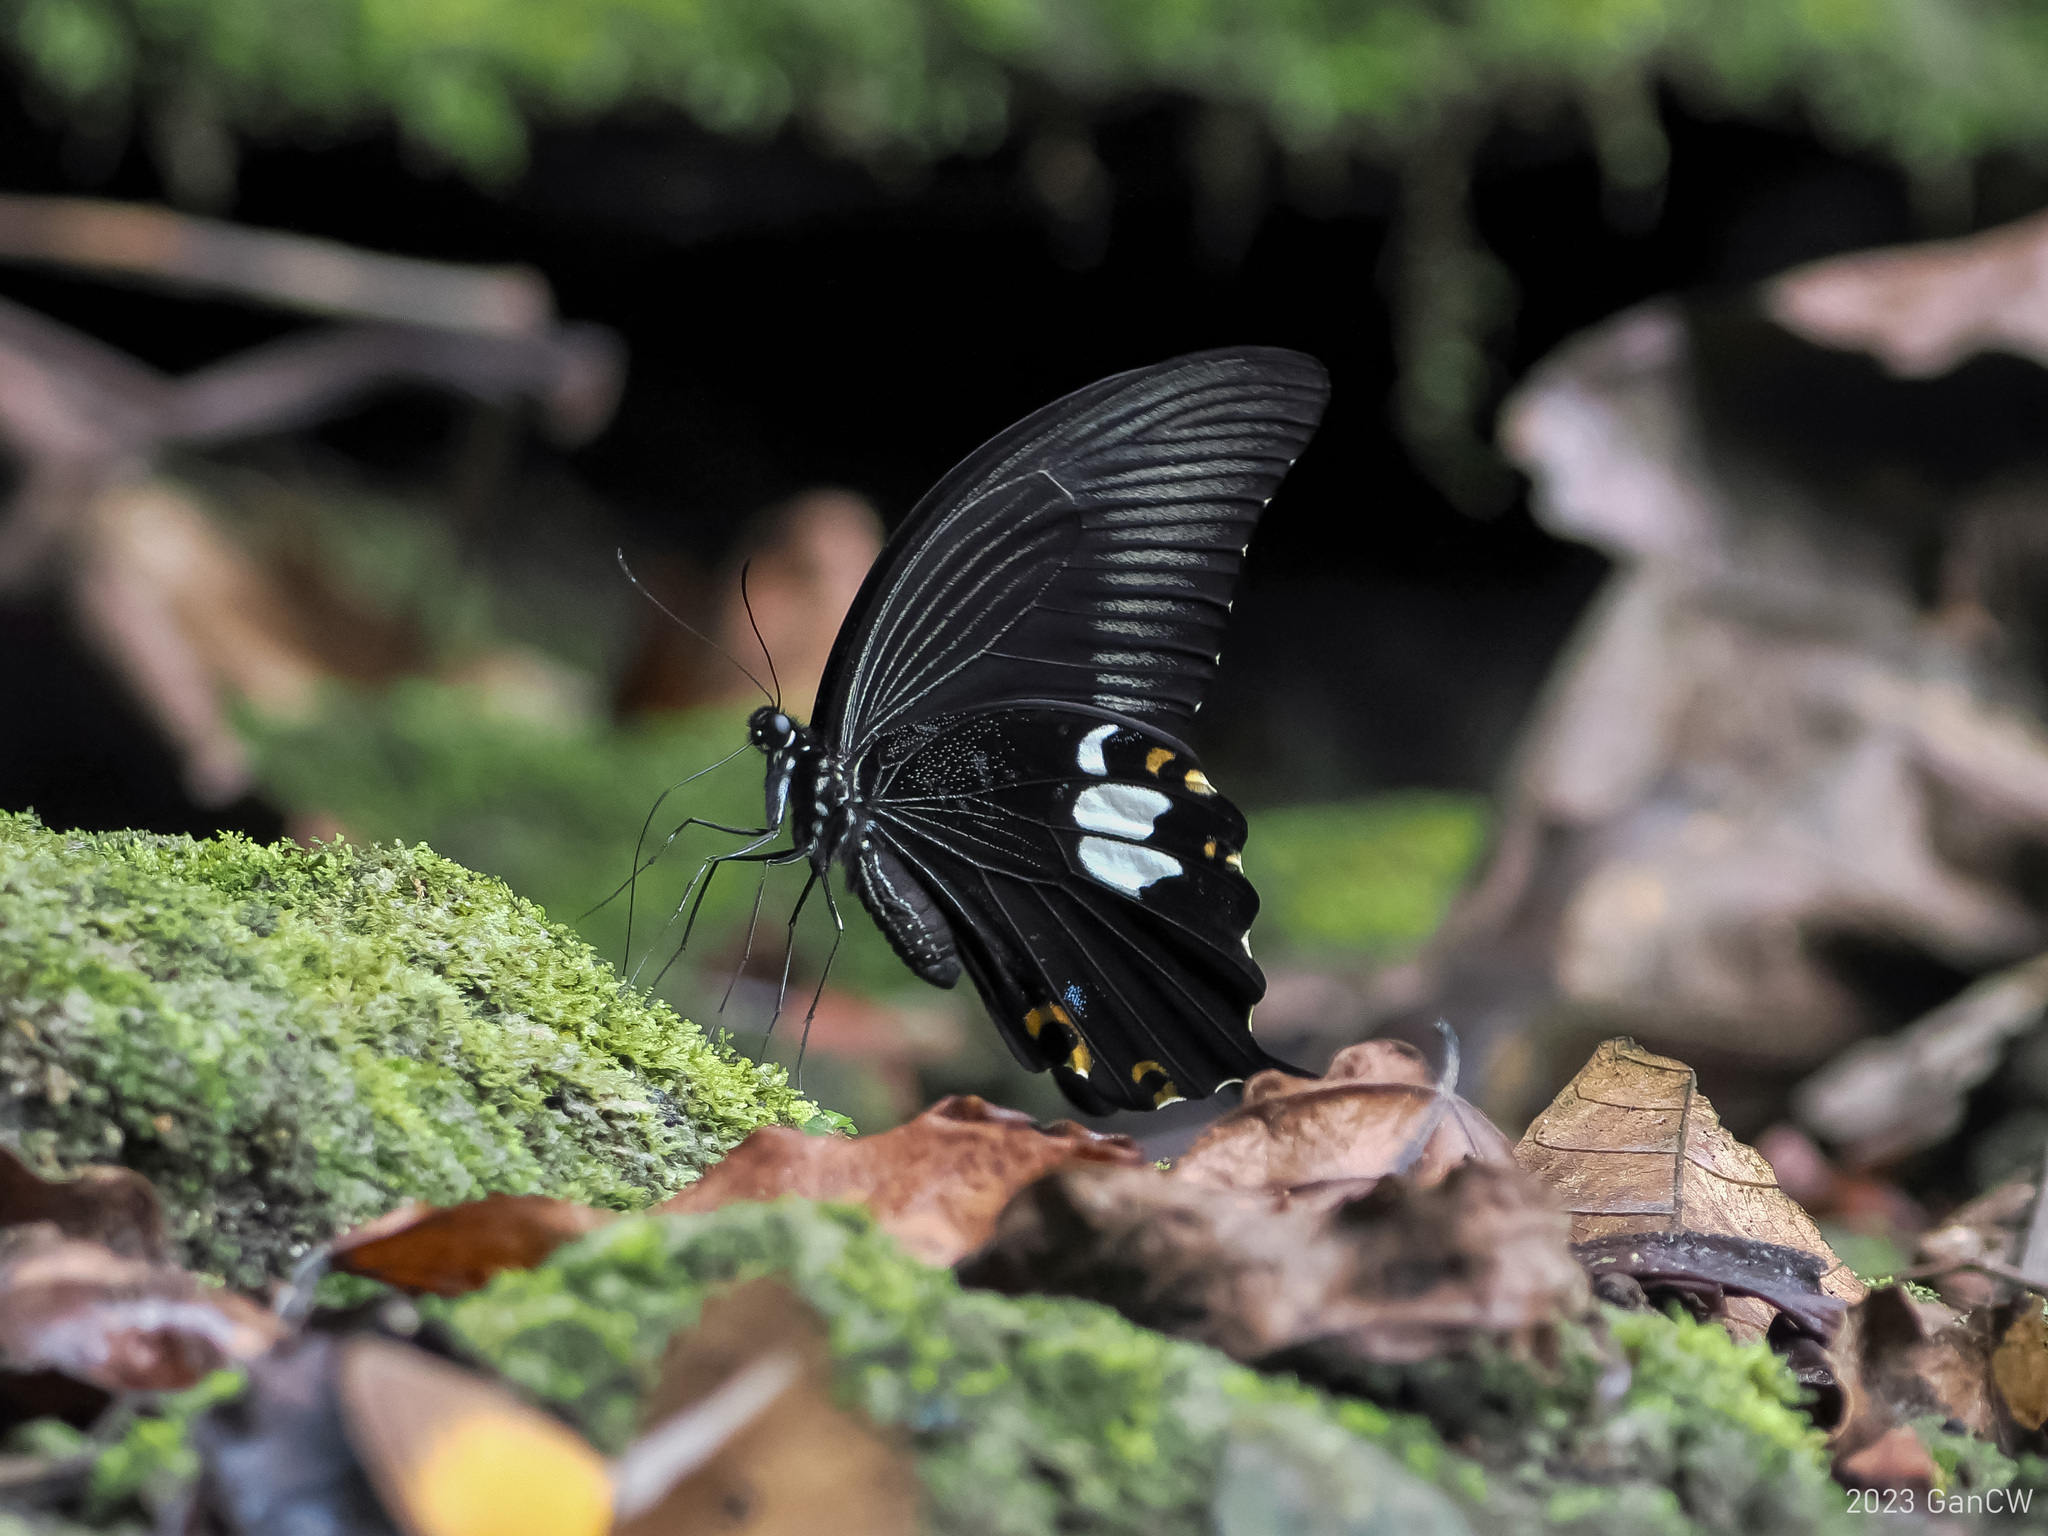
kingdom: Animalia
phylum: Arthropoda
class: Insecta
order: Lepidoptera
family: Papilionidae
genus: Papilio
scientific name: Papilio sataspes
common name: Sulawesi red helen
